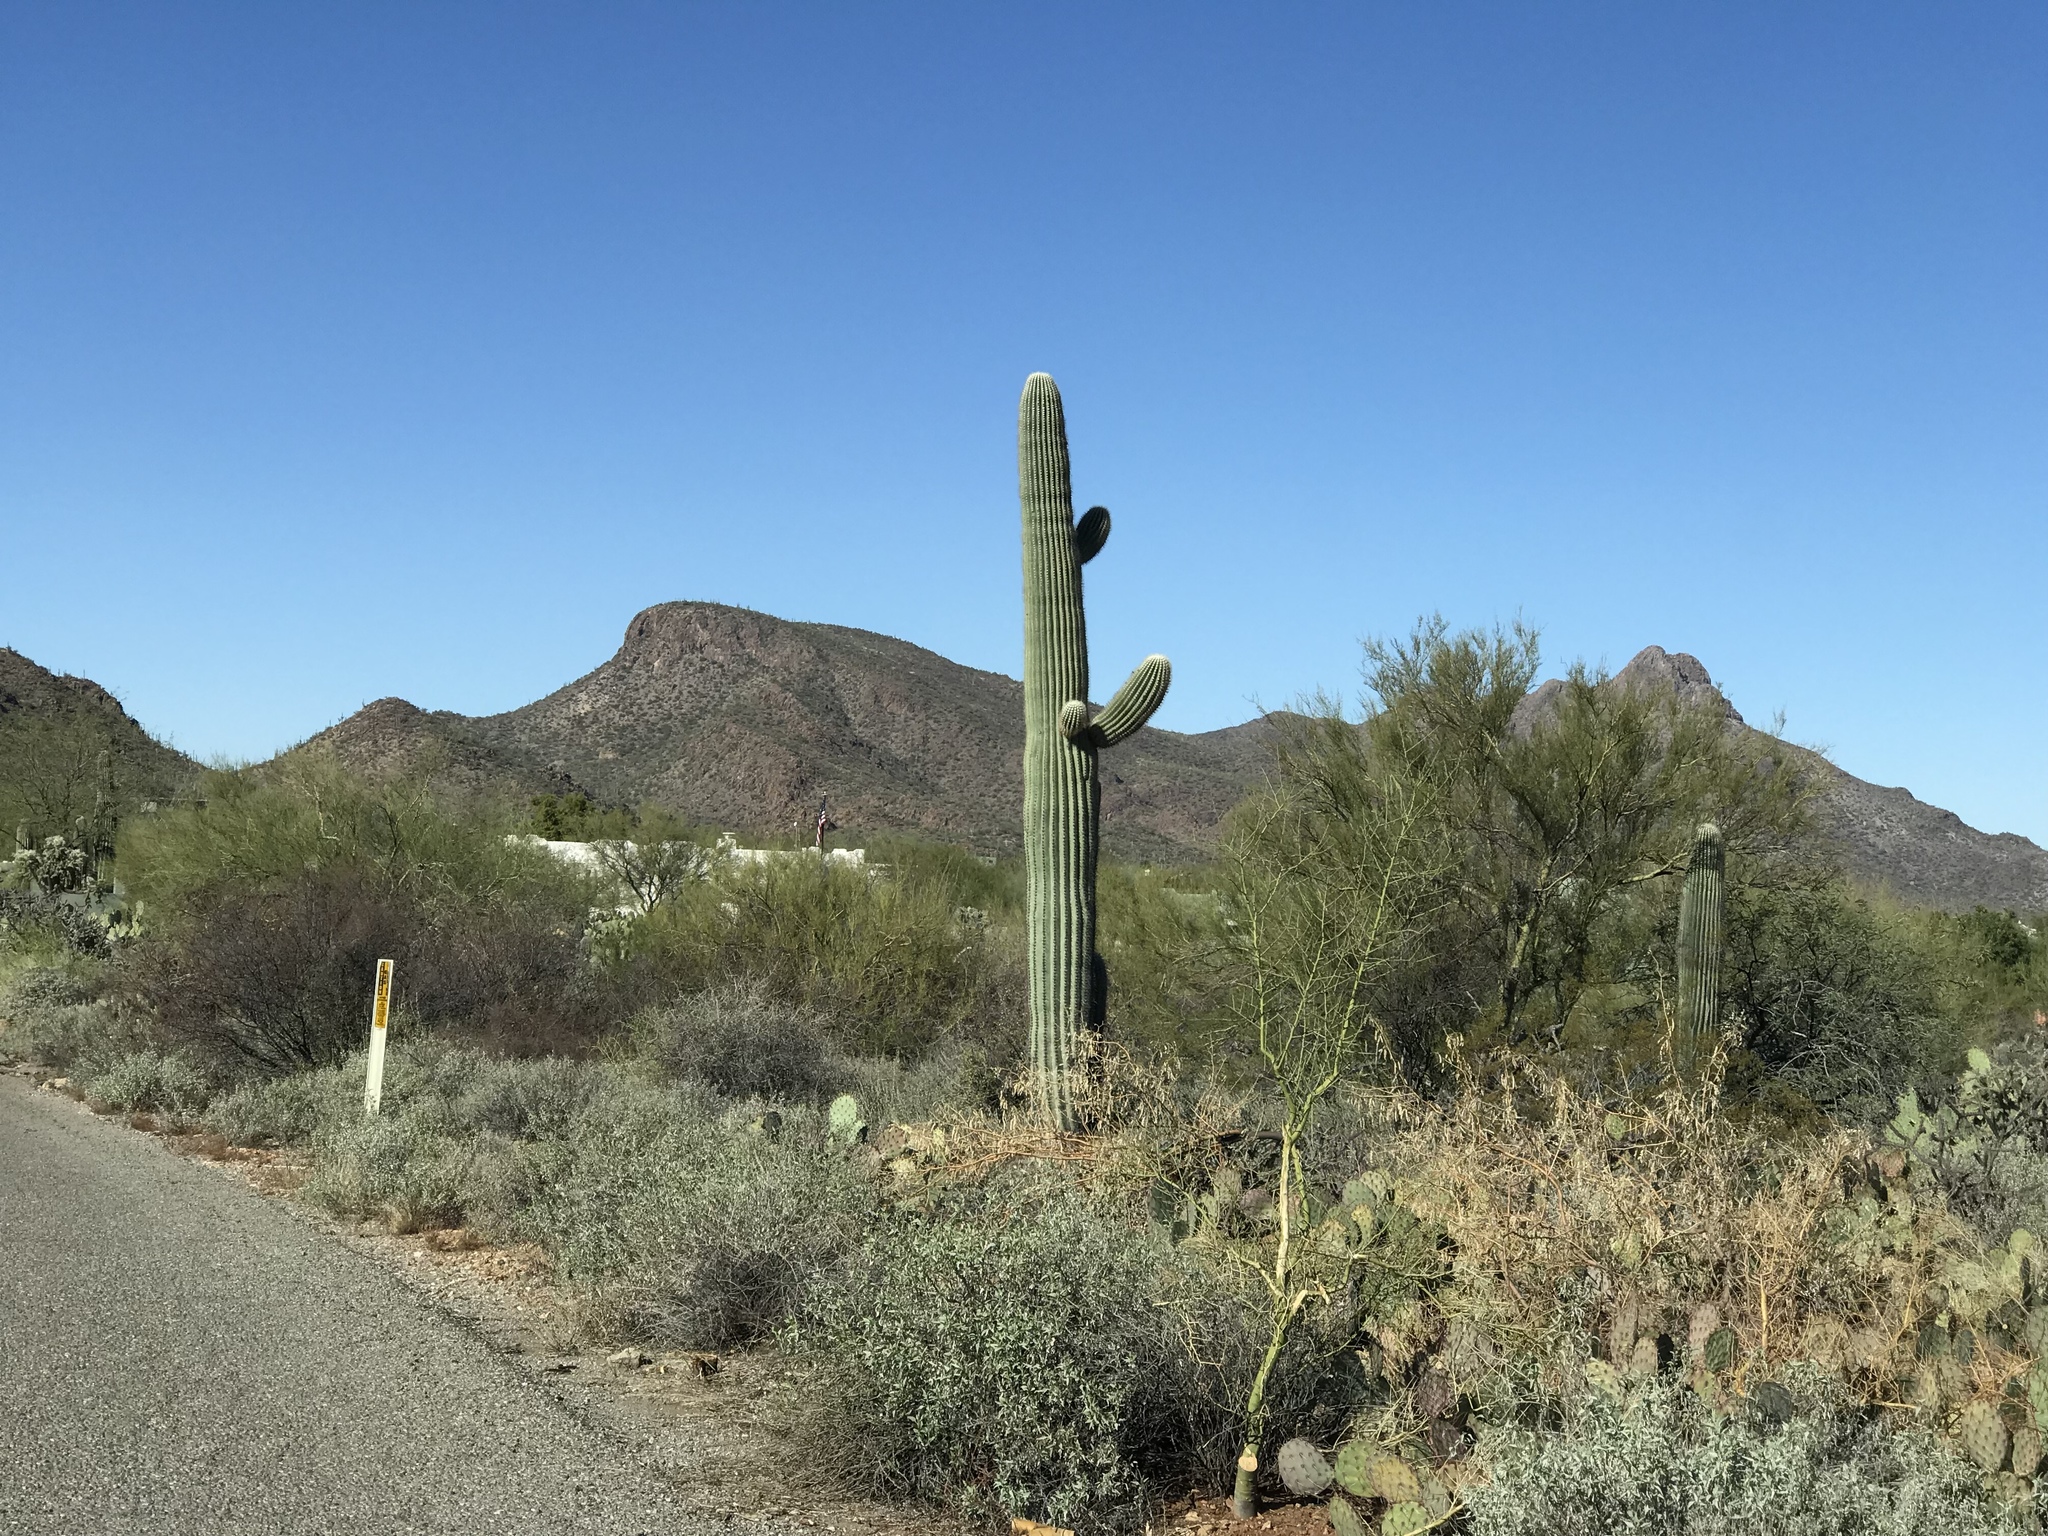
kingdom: Plantae
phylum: Tracheophyta
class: Magnoliopsida
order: Caryophyllales
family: Cactaceae
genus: Carnegiea
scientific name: Carnegiea gigantea
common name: Saguaro
